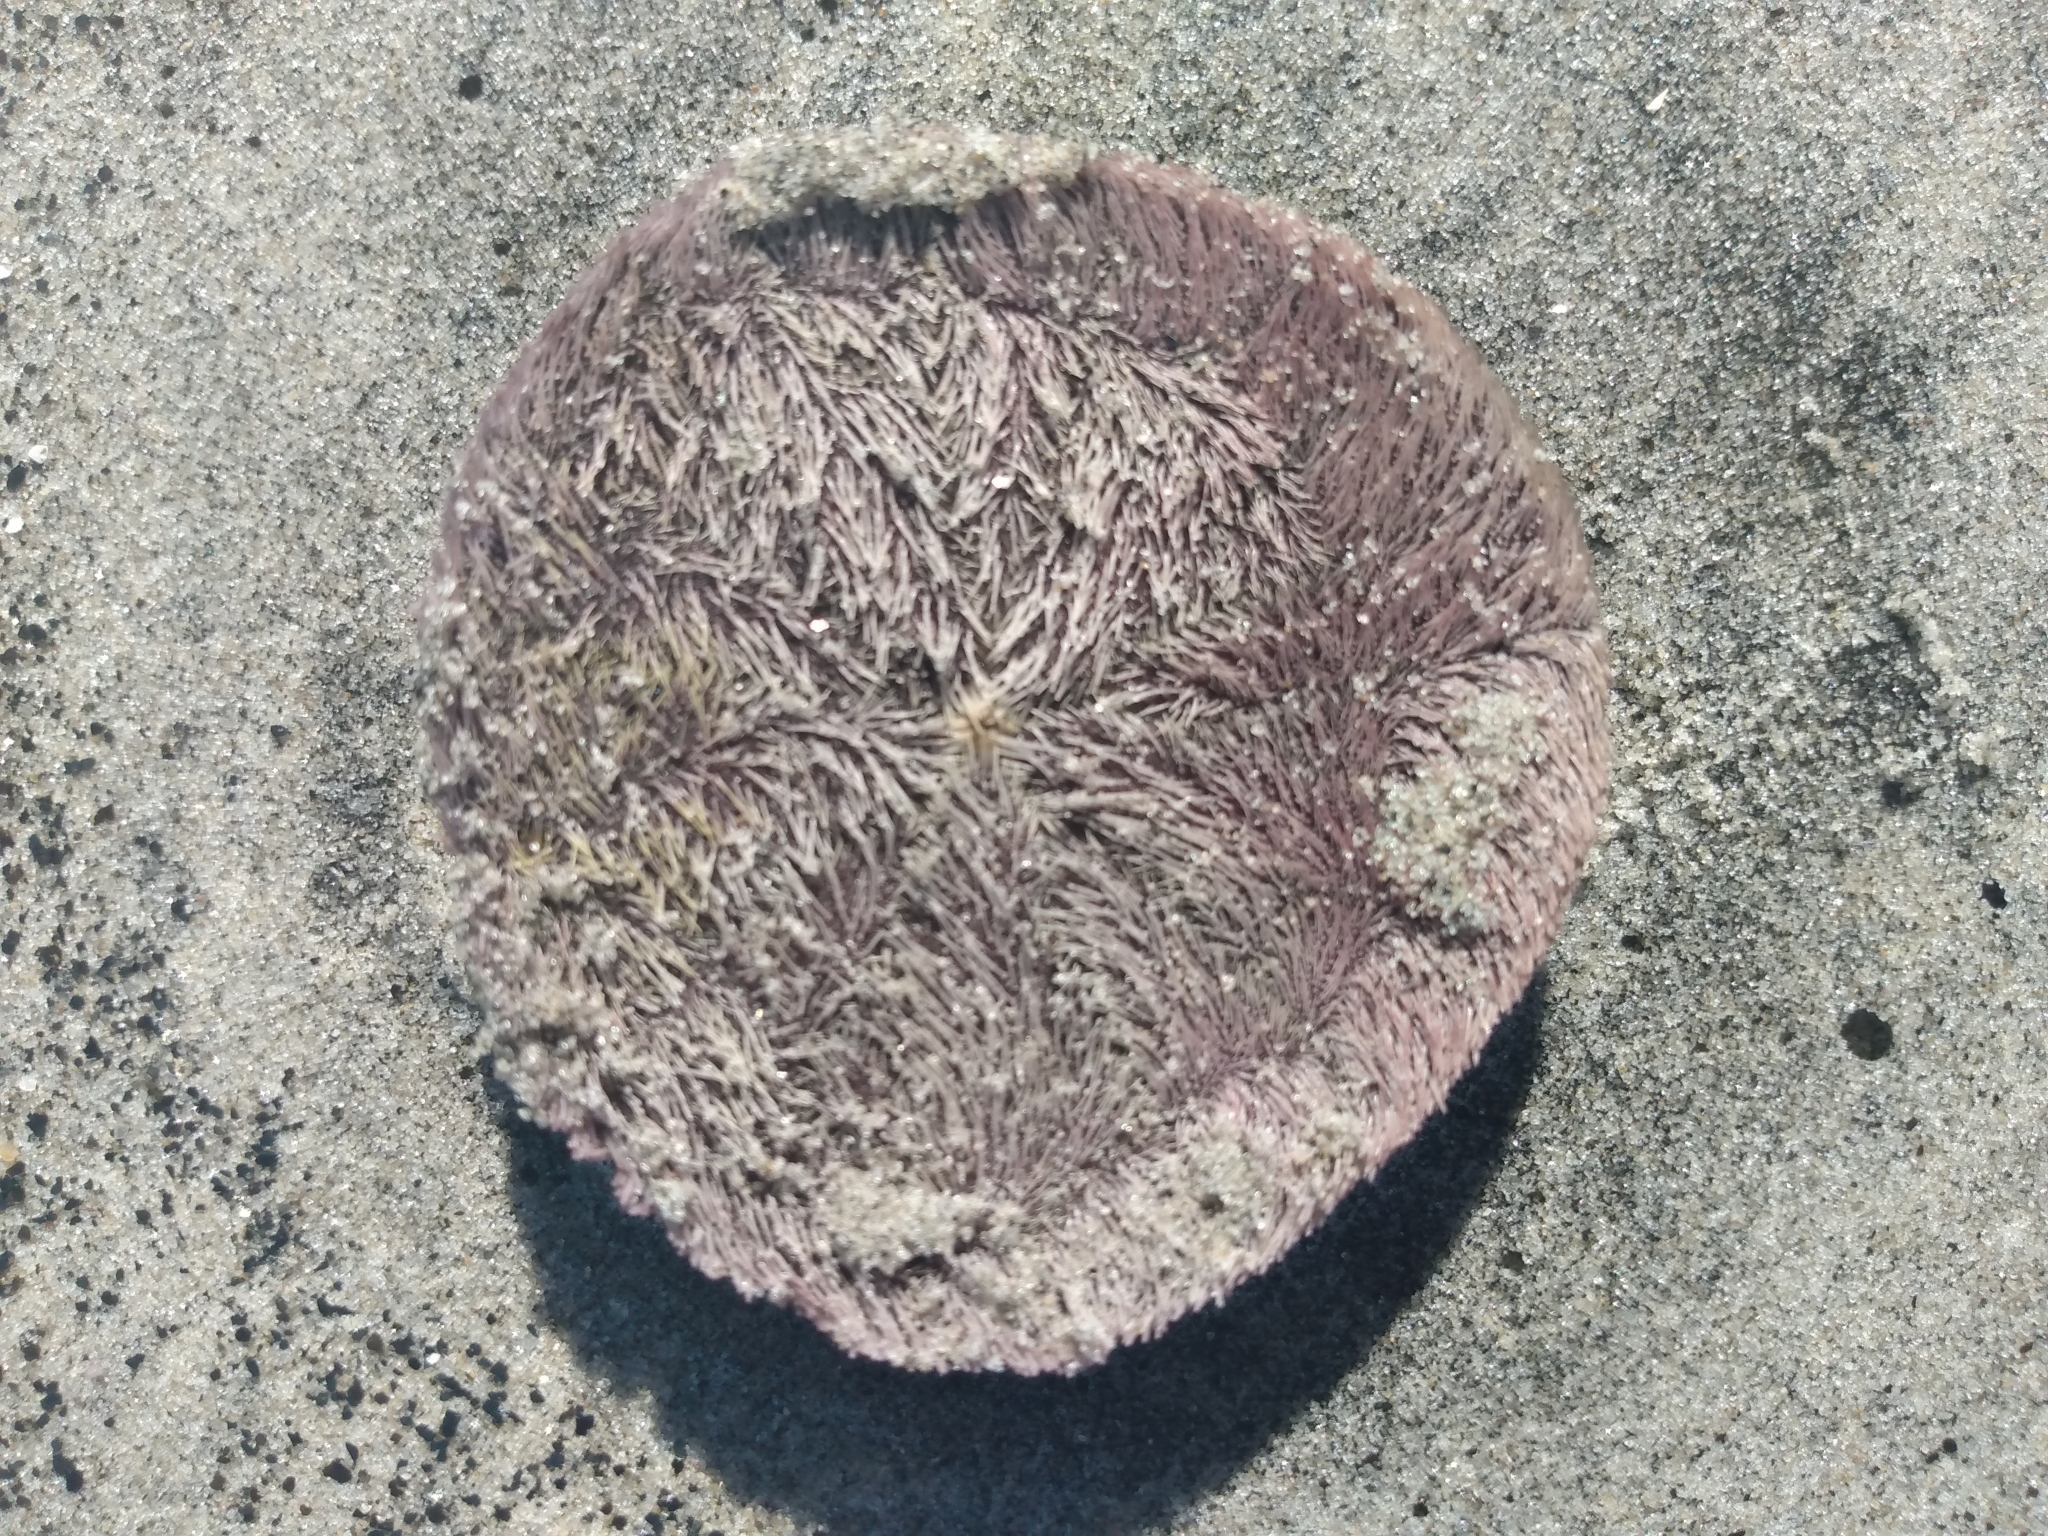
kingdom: Animalia
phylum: Echinodermata
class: Echinoidea
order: Echinolampadacea
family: Dendrasteridae
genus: Dendraster
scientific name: Dendraster excentricus
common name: Eccentric sand dollar sea urchin
